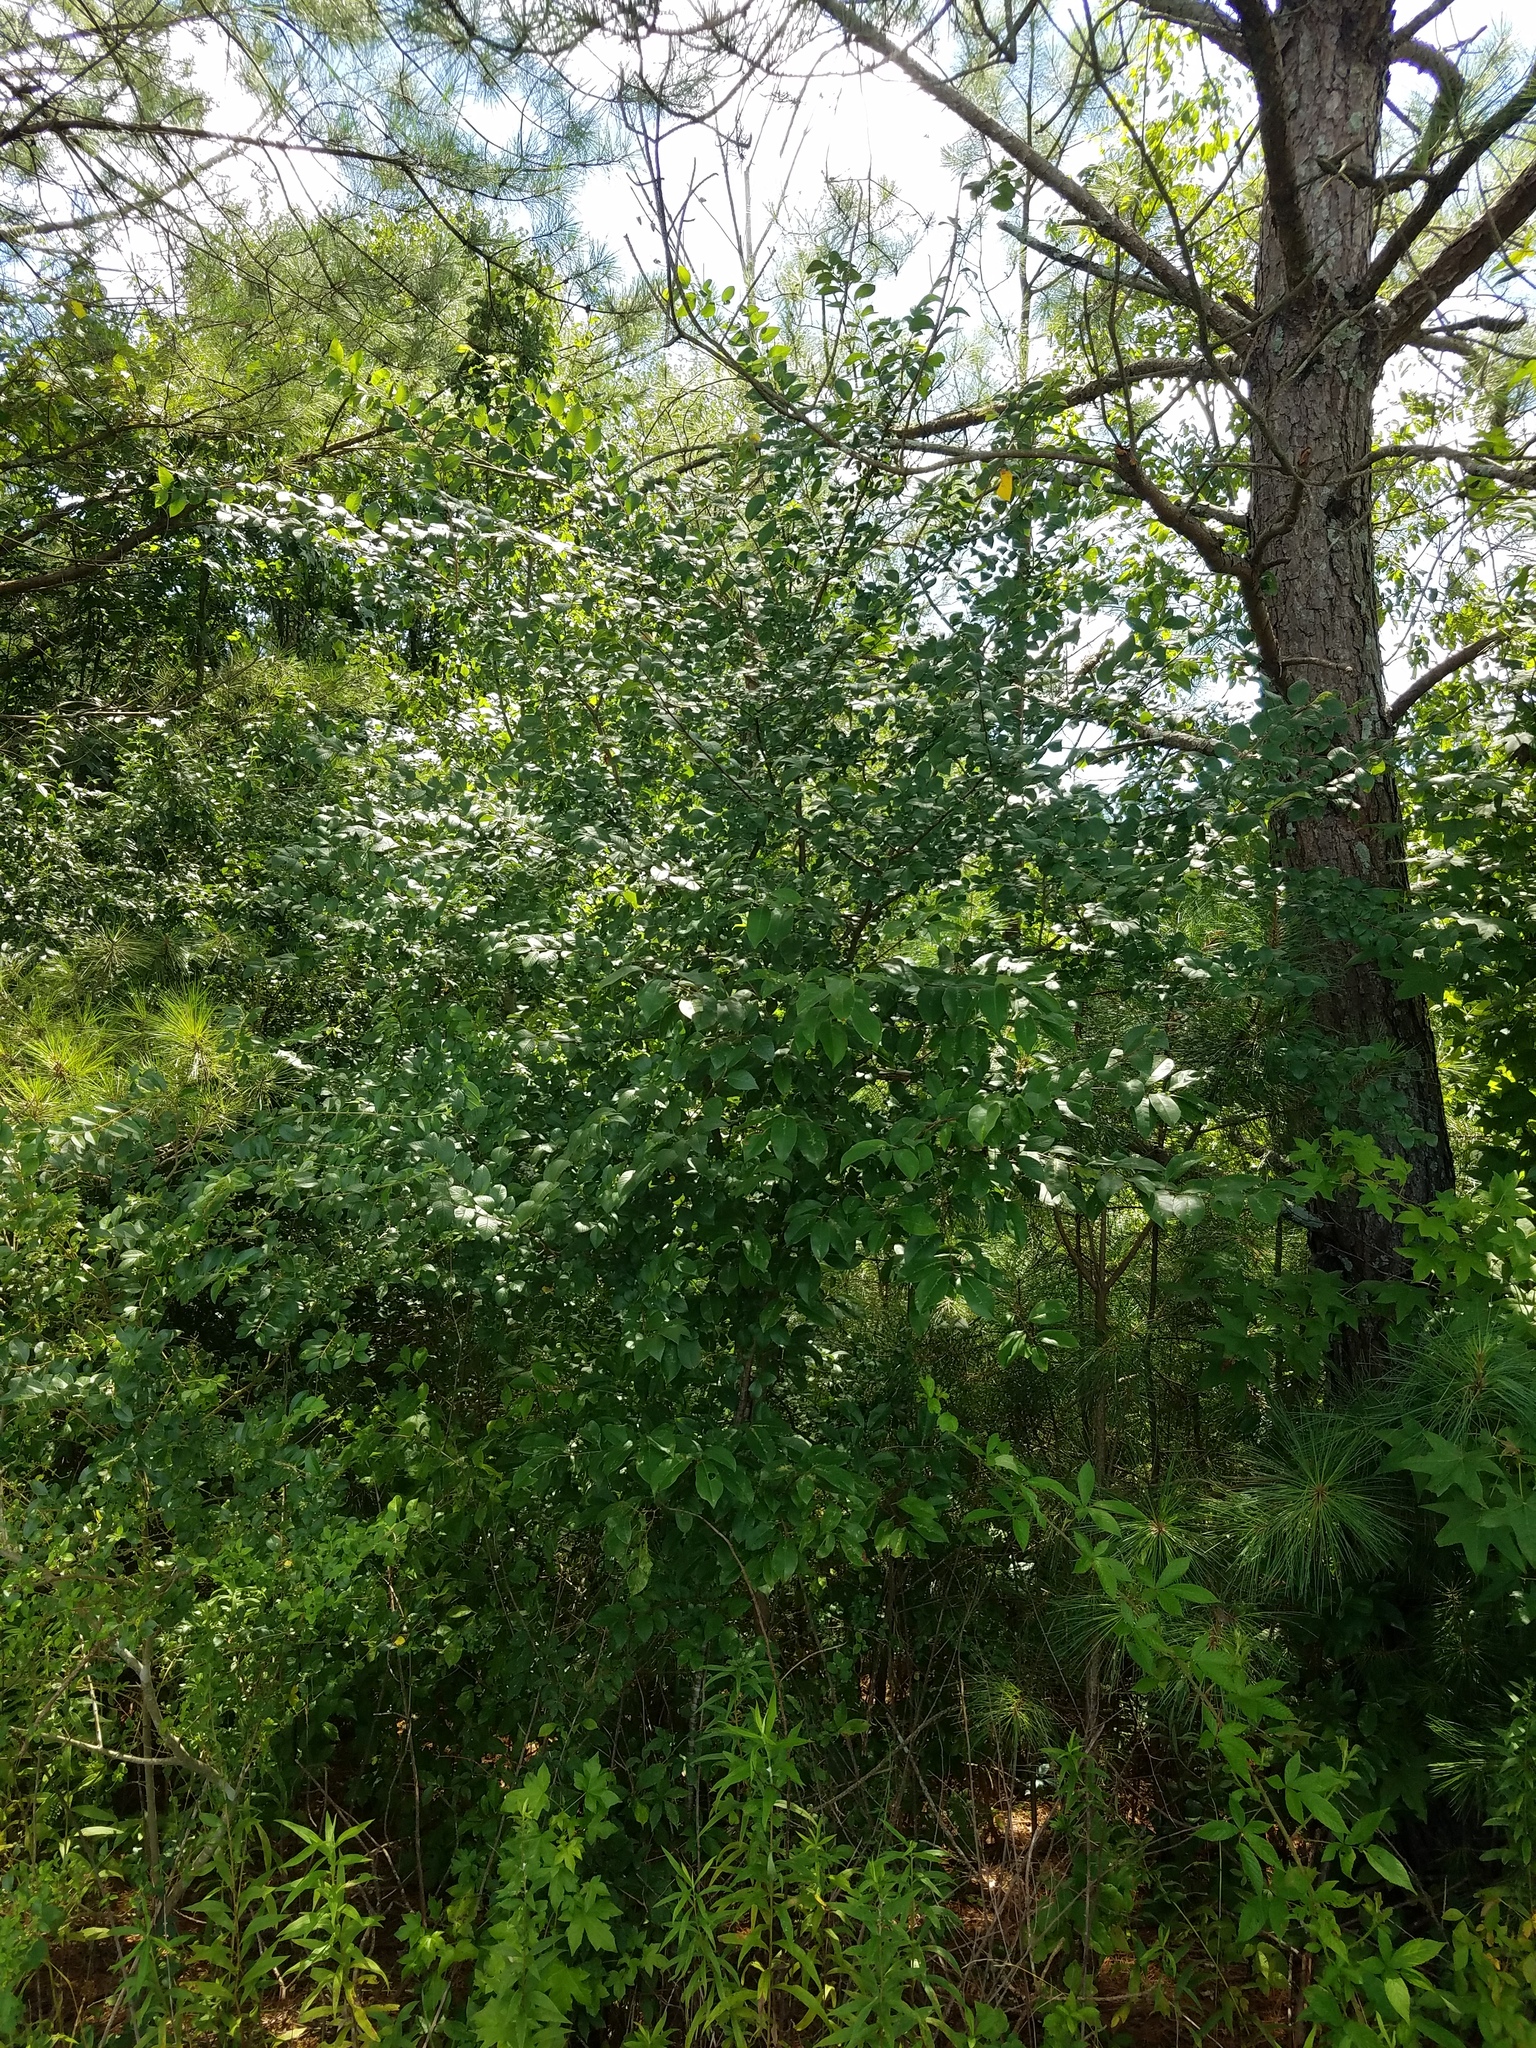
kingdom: Plantae
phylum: Tracheophyta
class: Magnoliopsida
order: Rosales
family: Ulmaceae
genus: Ulmus
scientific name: Ulmus parvifolia
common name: Chinese elm
